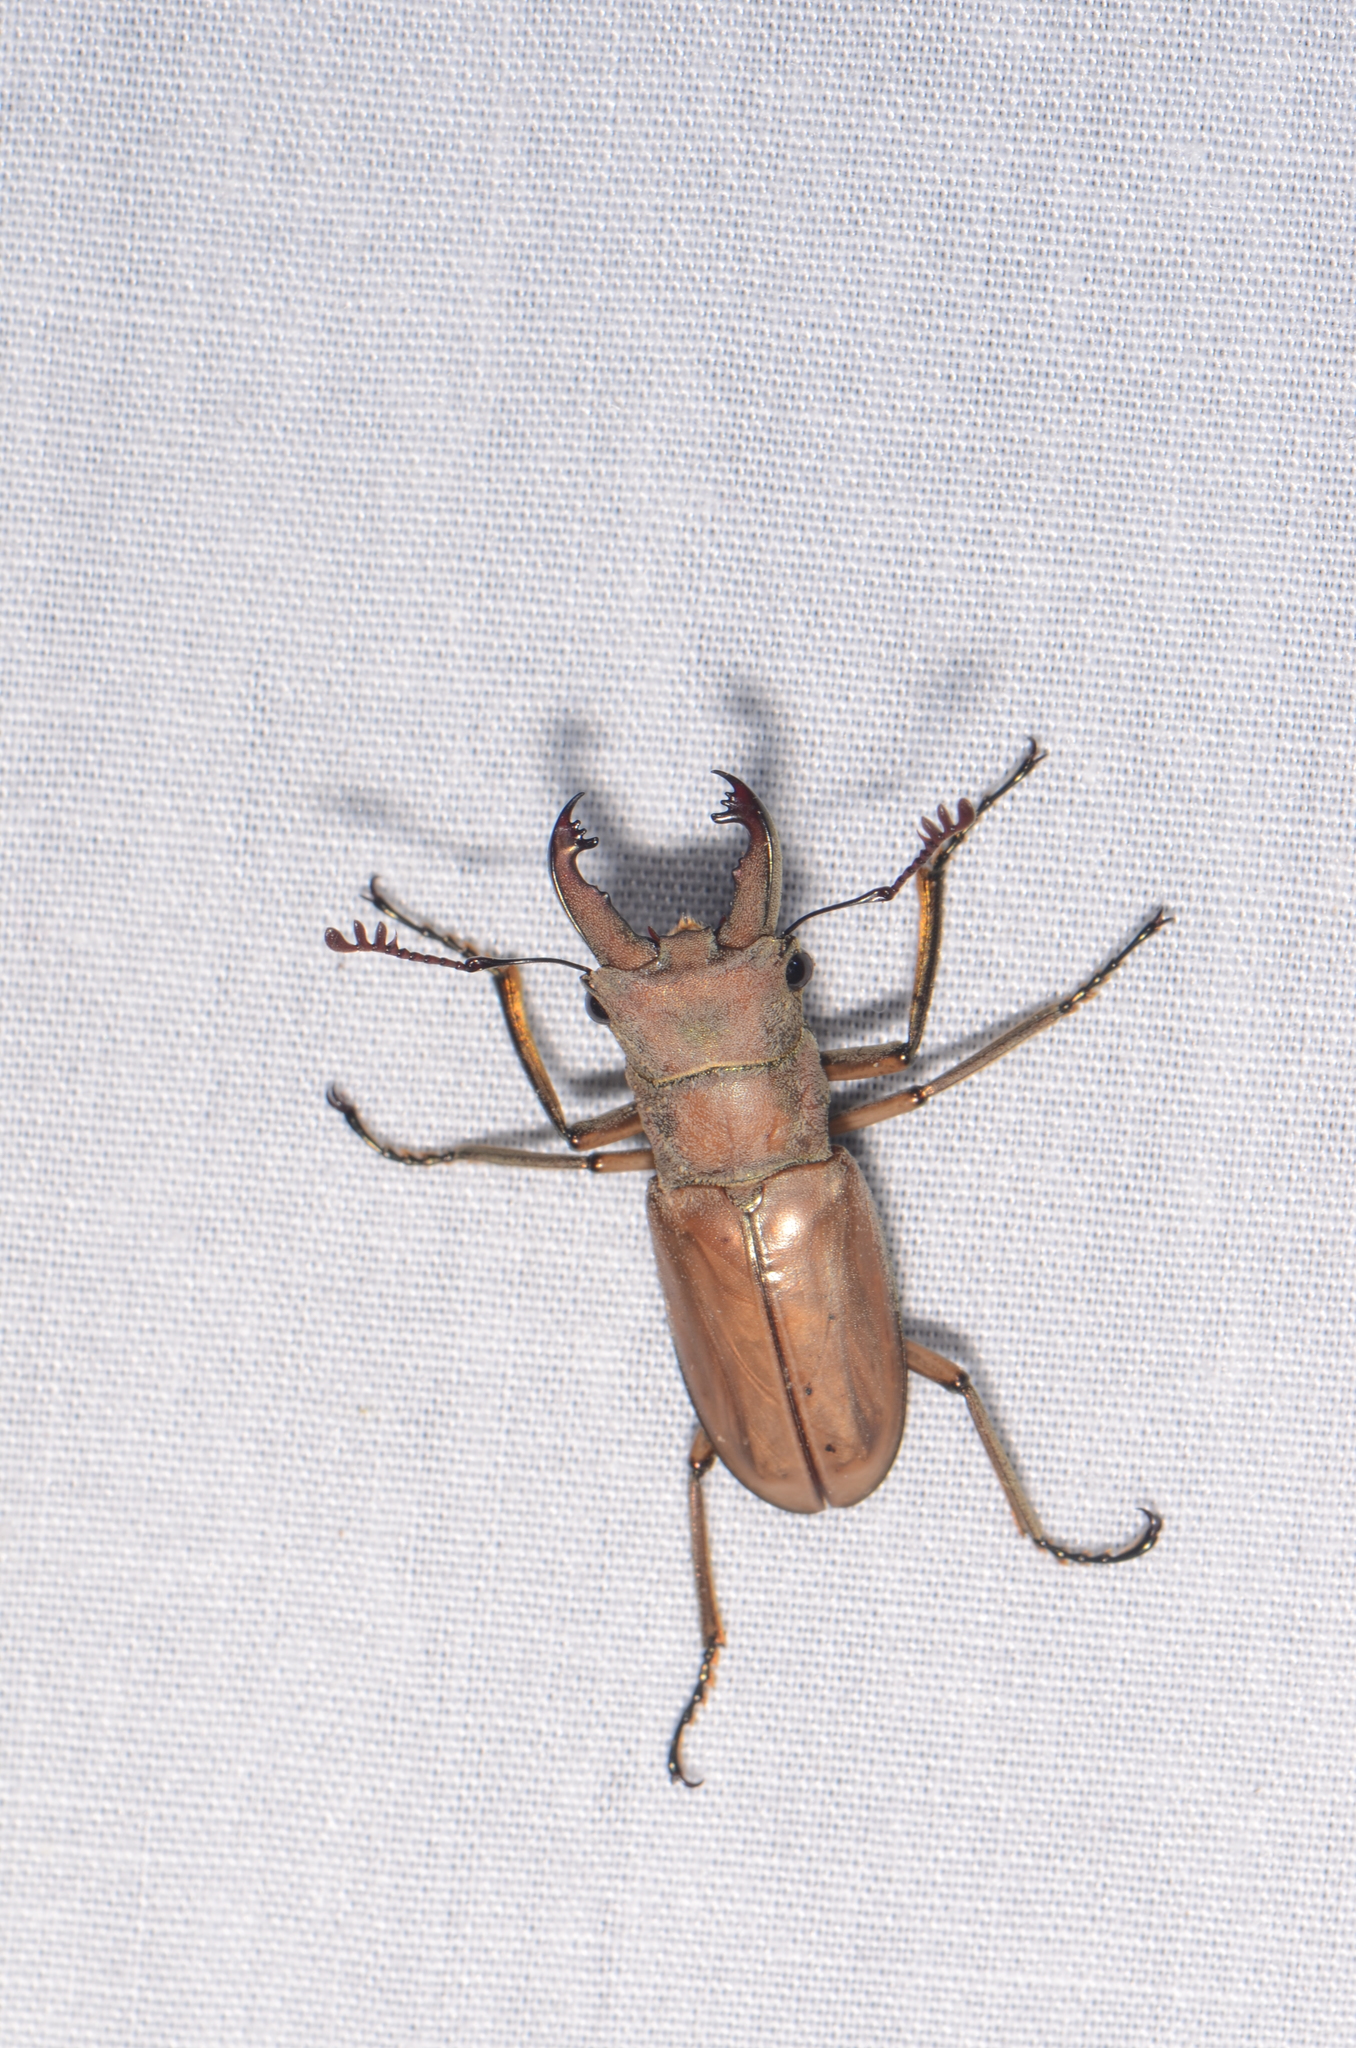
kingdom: Animalia
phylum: Arthropoda
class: Insecta
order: Coleoptera
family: Lucanidae
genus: Cyclommatus
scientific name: Cyclommatus modiglianii
